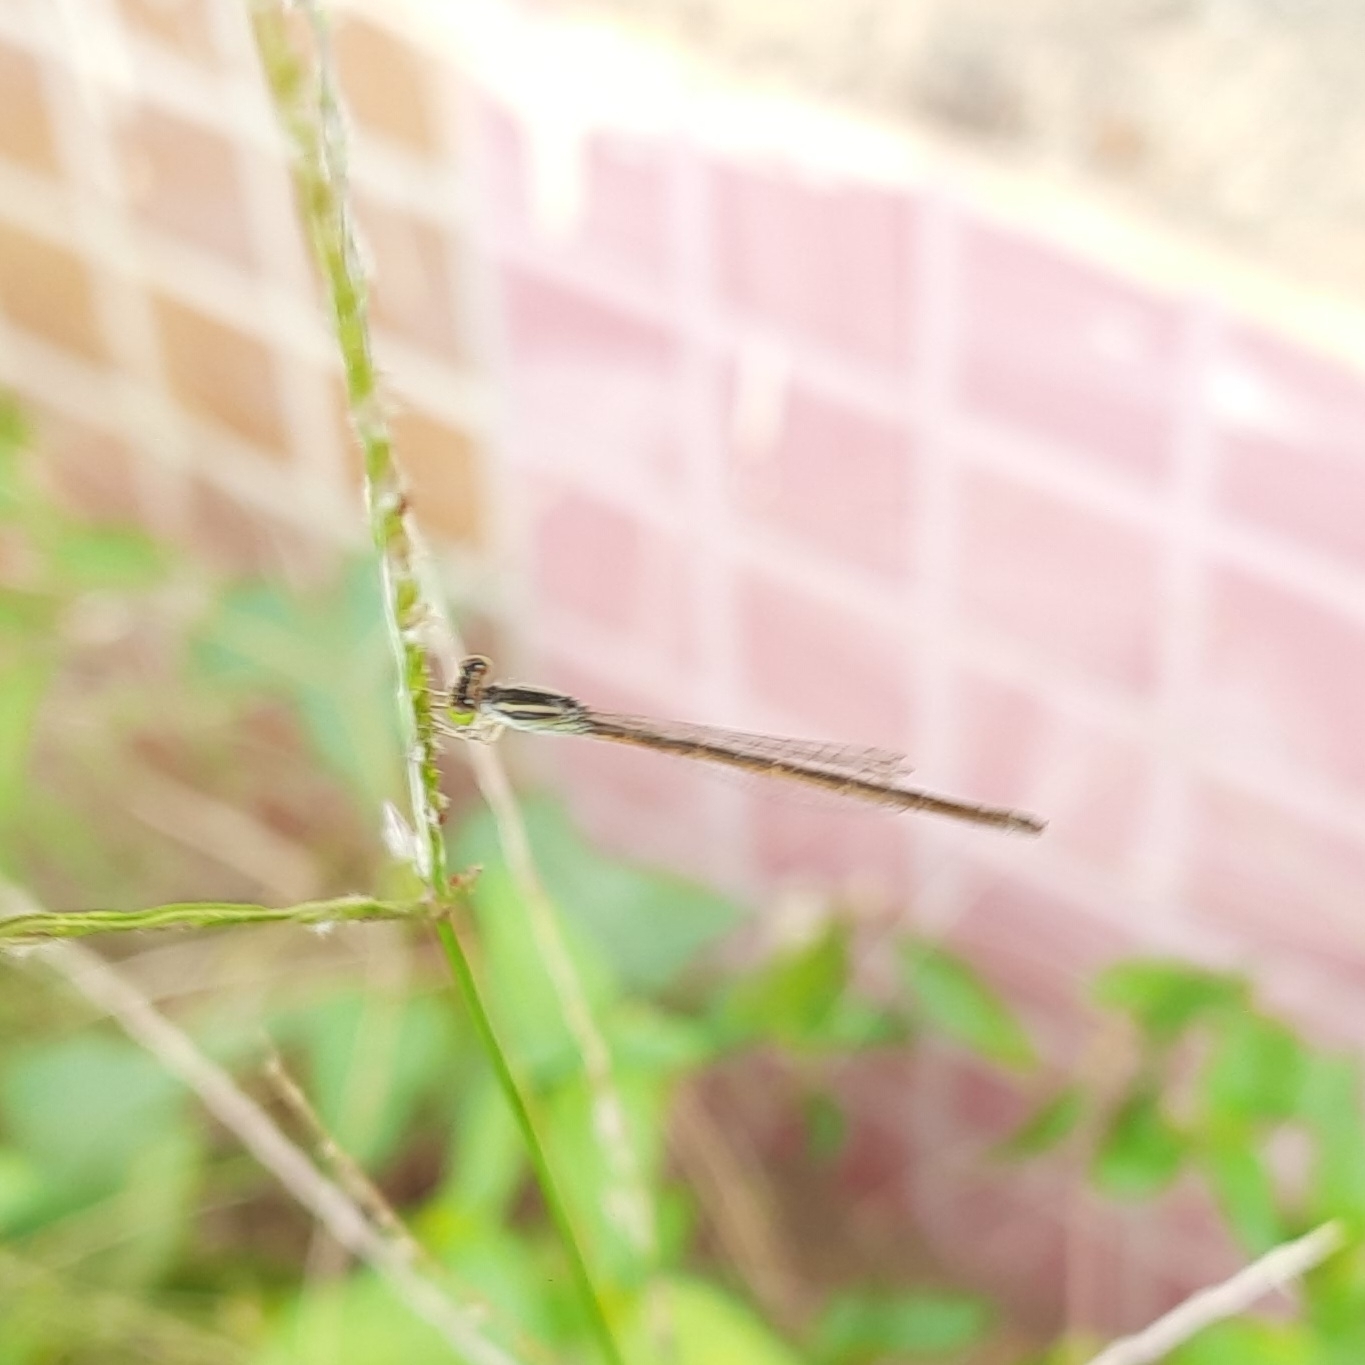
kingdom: Animalia
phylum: Arthropoda
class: Insecta
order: Odonata
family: Coenagrionidae
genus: Ischnura
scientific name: Ischnura rubilio
